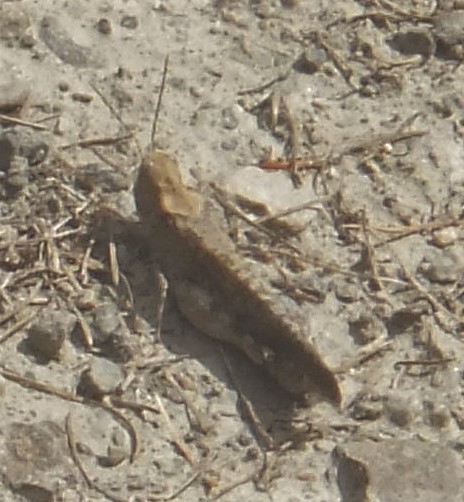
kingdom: Animalia
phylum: Arthropoda
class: Insecta
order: Orthoptera
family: Acrididae
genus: Trimerotropis
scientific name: Trimerotropis verruculata
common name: Crackling forest grasshopper
